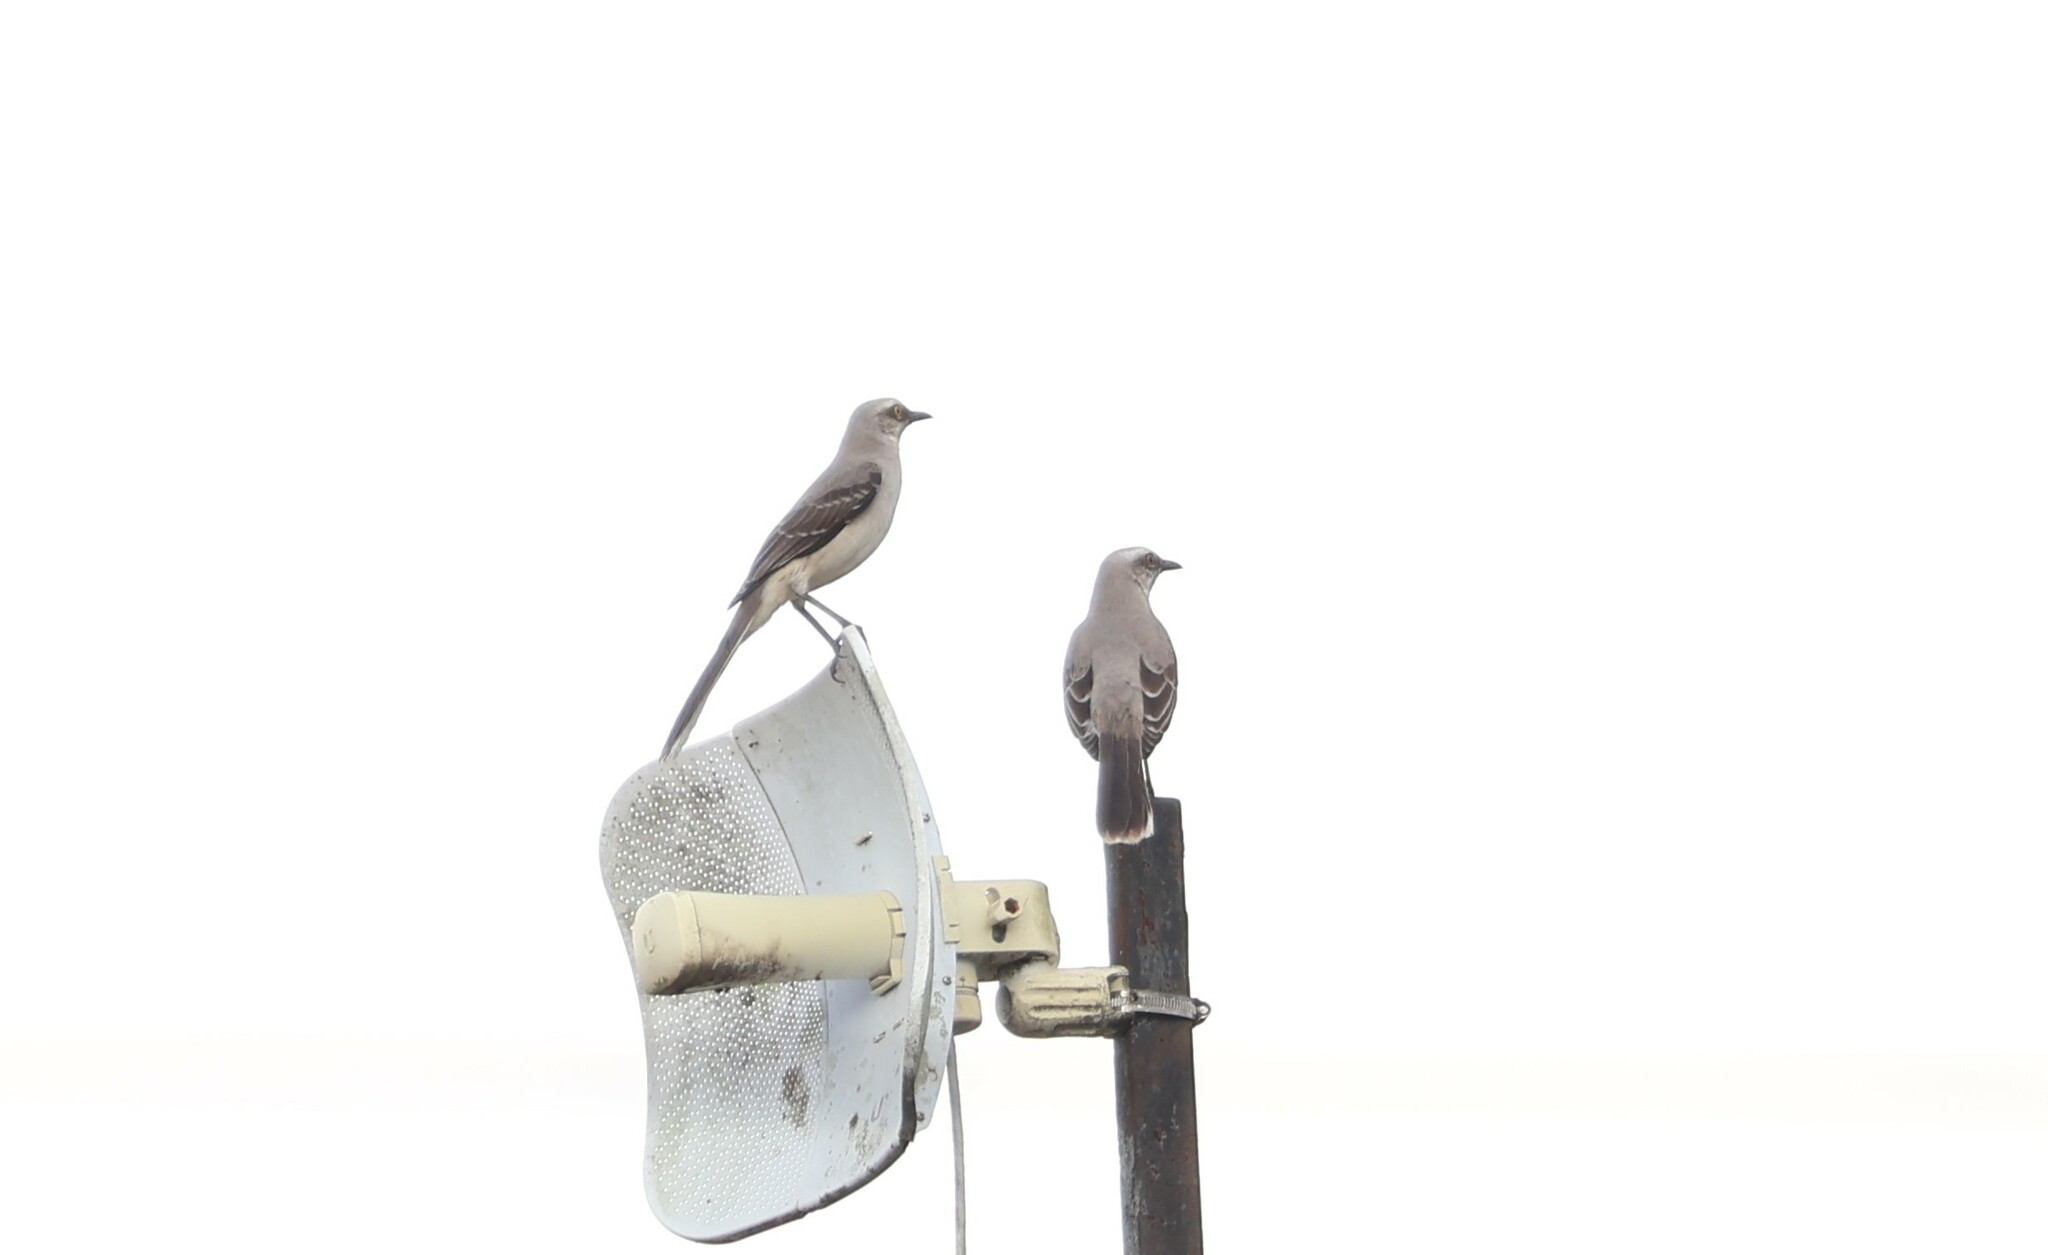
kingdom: Animalia
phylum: Chordata
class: Aves
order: Passeriformes
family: Mimidae
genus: Mimus
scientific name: Mimus gilvus
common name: Tropical mockingbird
